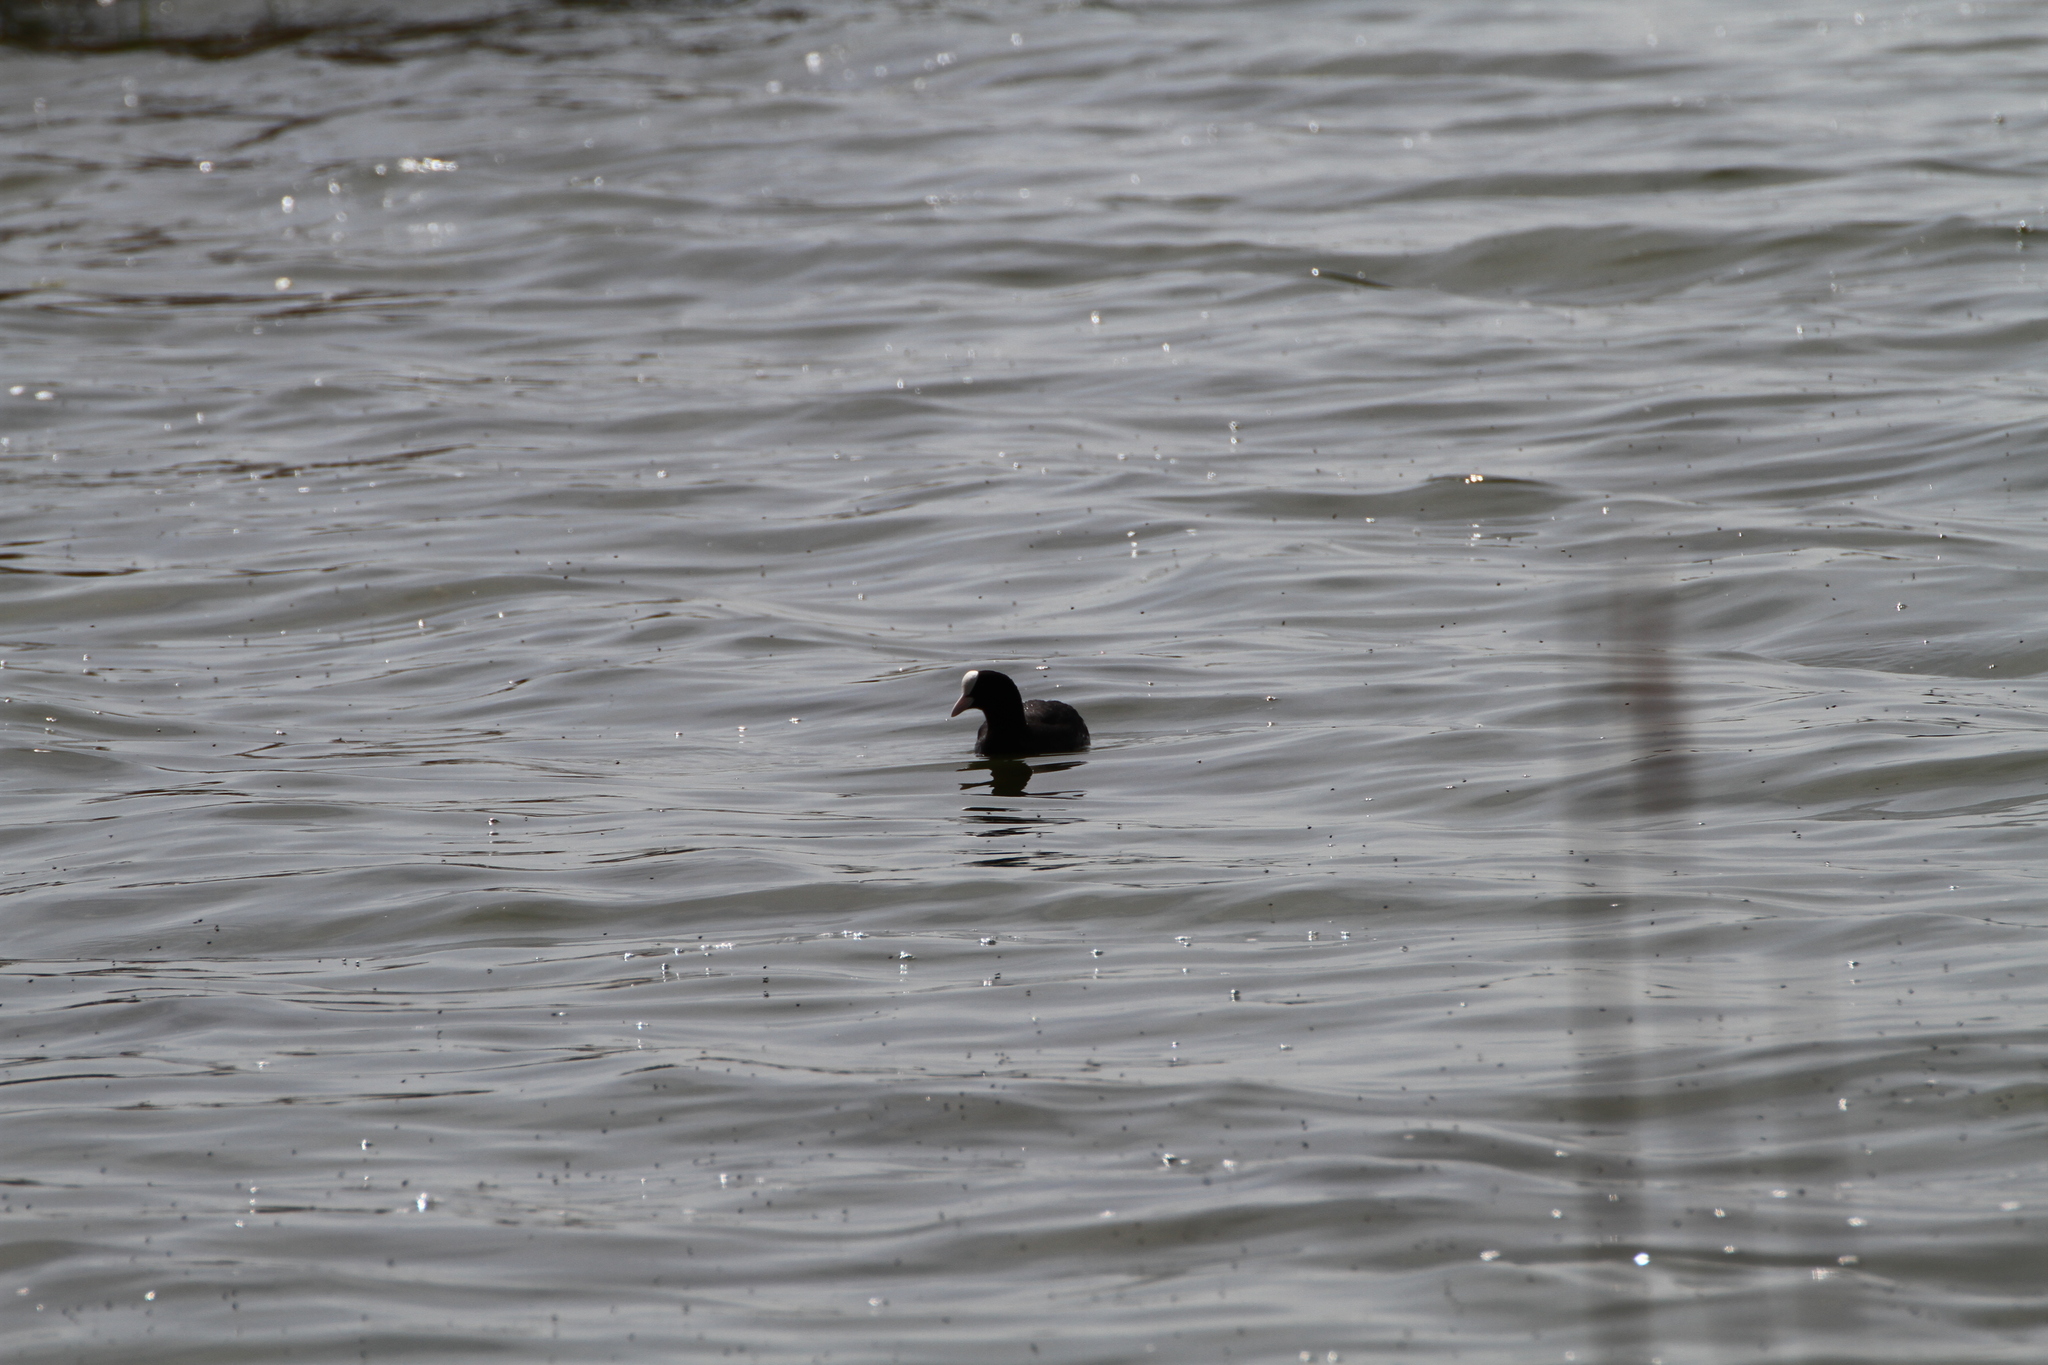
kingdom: Animalia
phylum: Chordata
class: Aves
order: Gruiformes
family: Rallidae
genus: Fulica
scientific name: Fulica atra
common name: Eurasian coot
